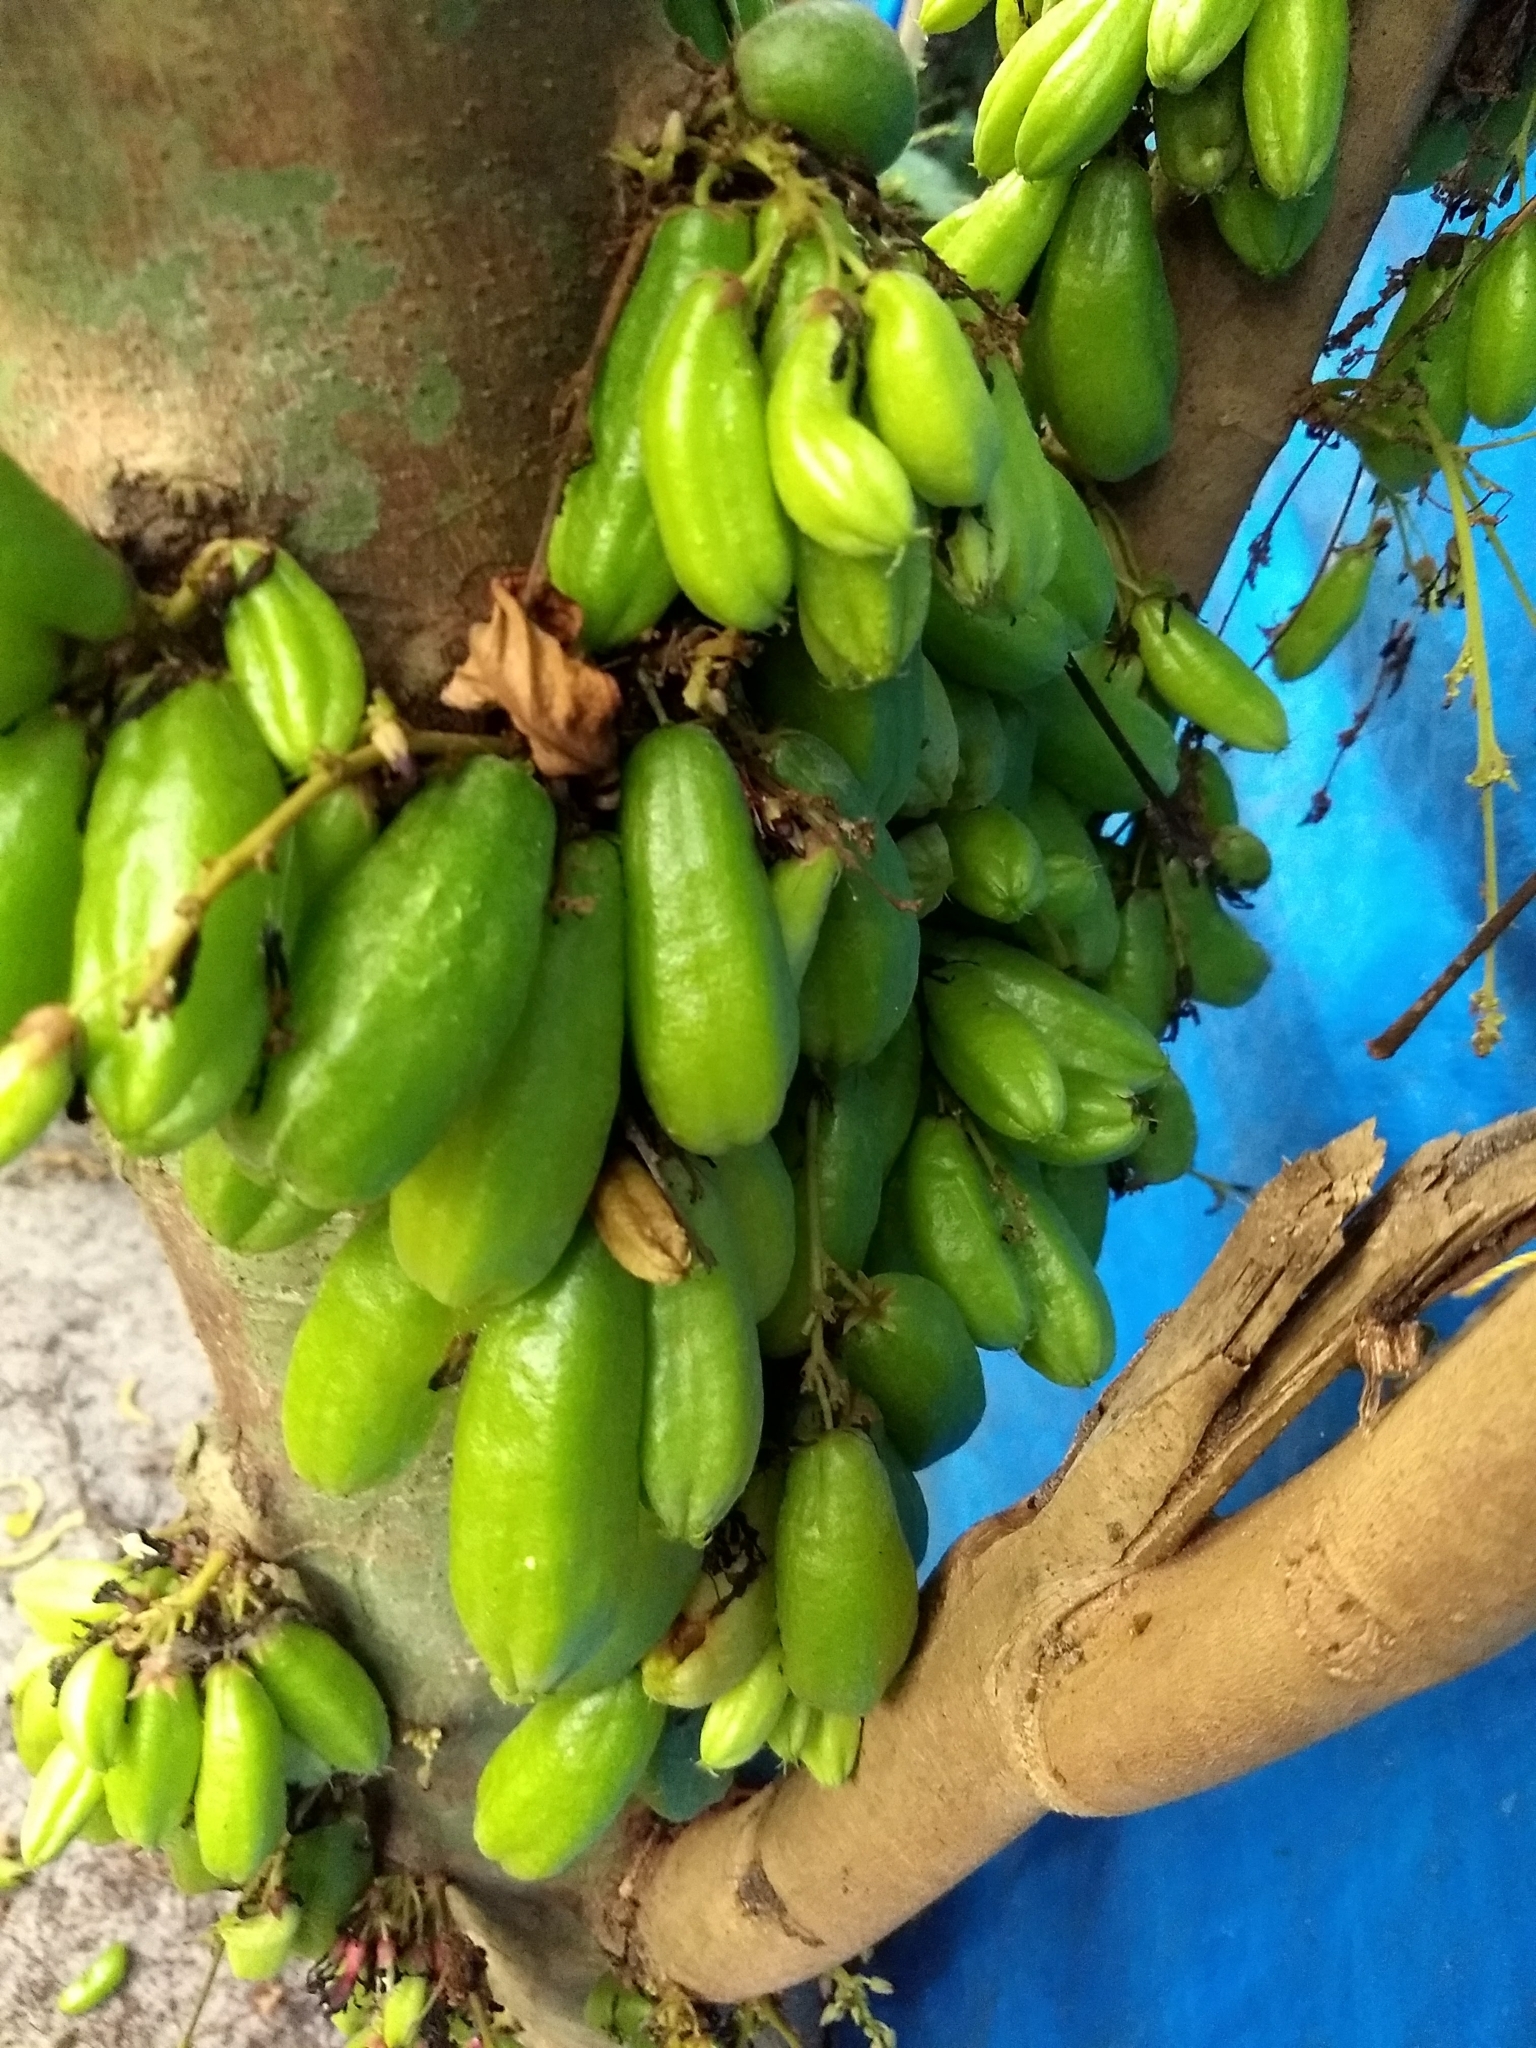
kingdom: Plantae
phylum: Tracheophyta
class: Magnoliopsida
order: Oxalidales
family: Oxalidaceae
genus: Averrhoa
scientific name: Averrhoa bilimbi
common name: Bilimbi
